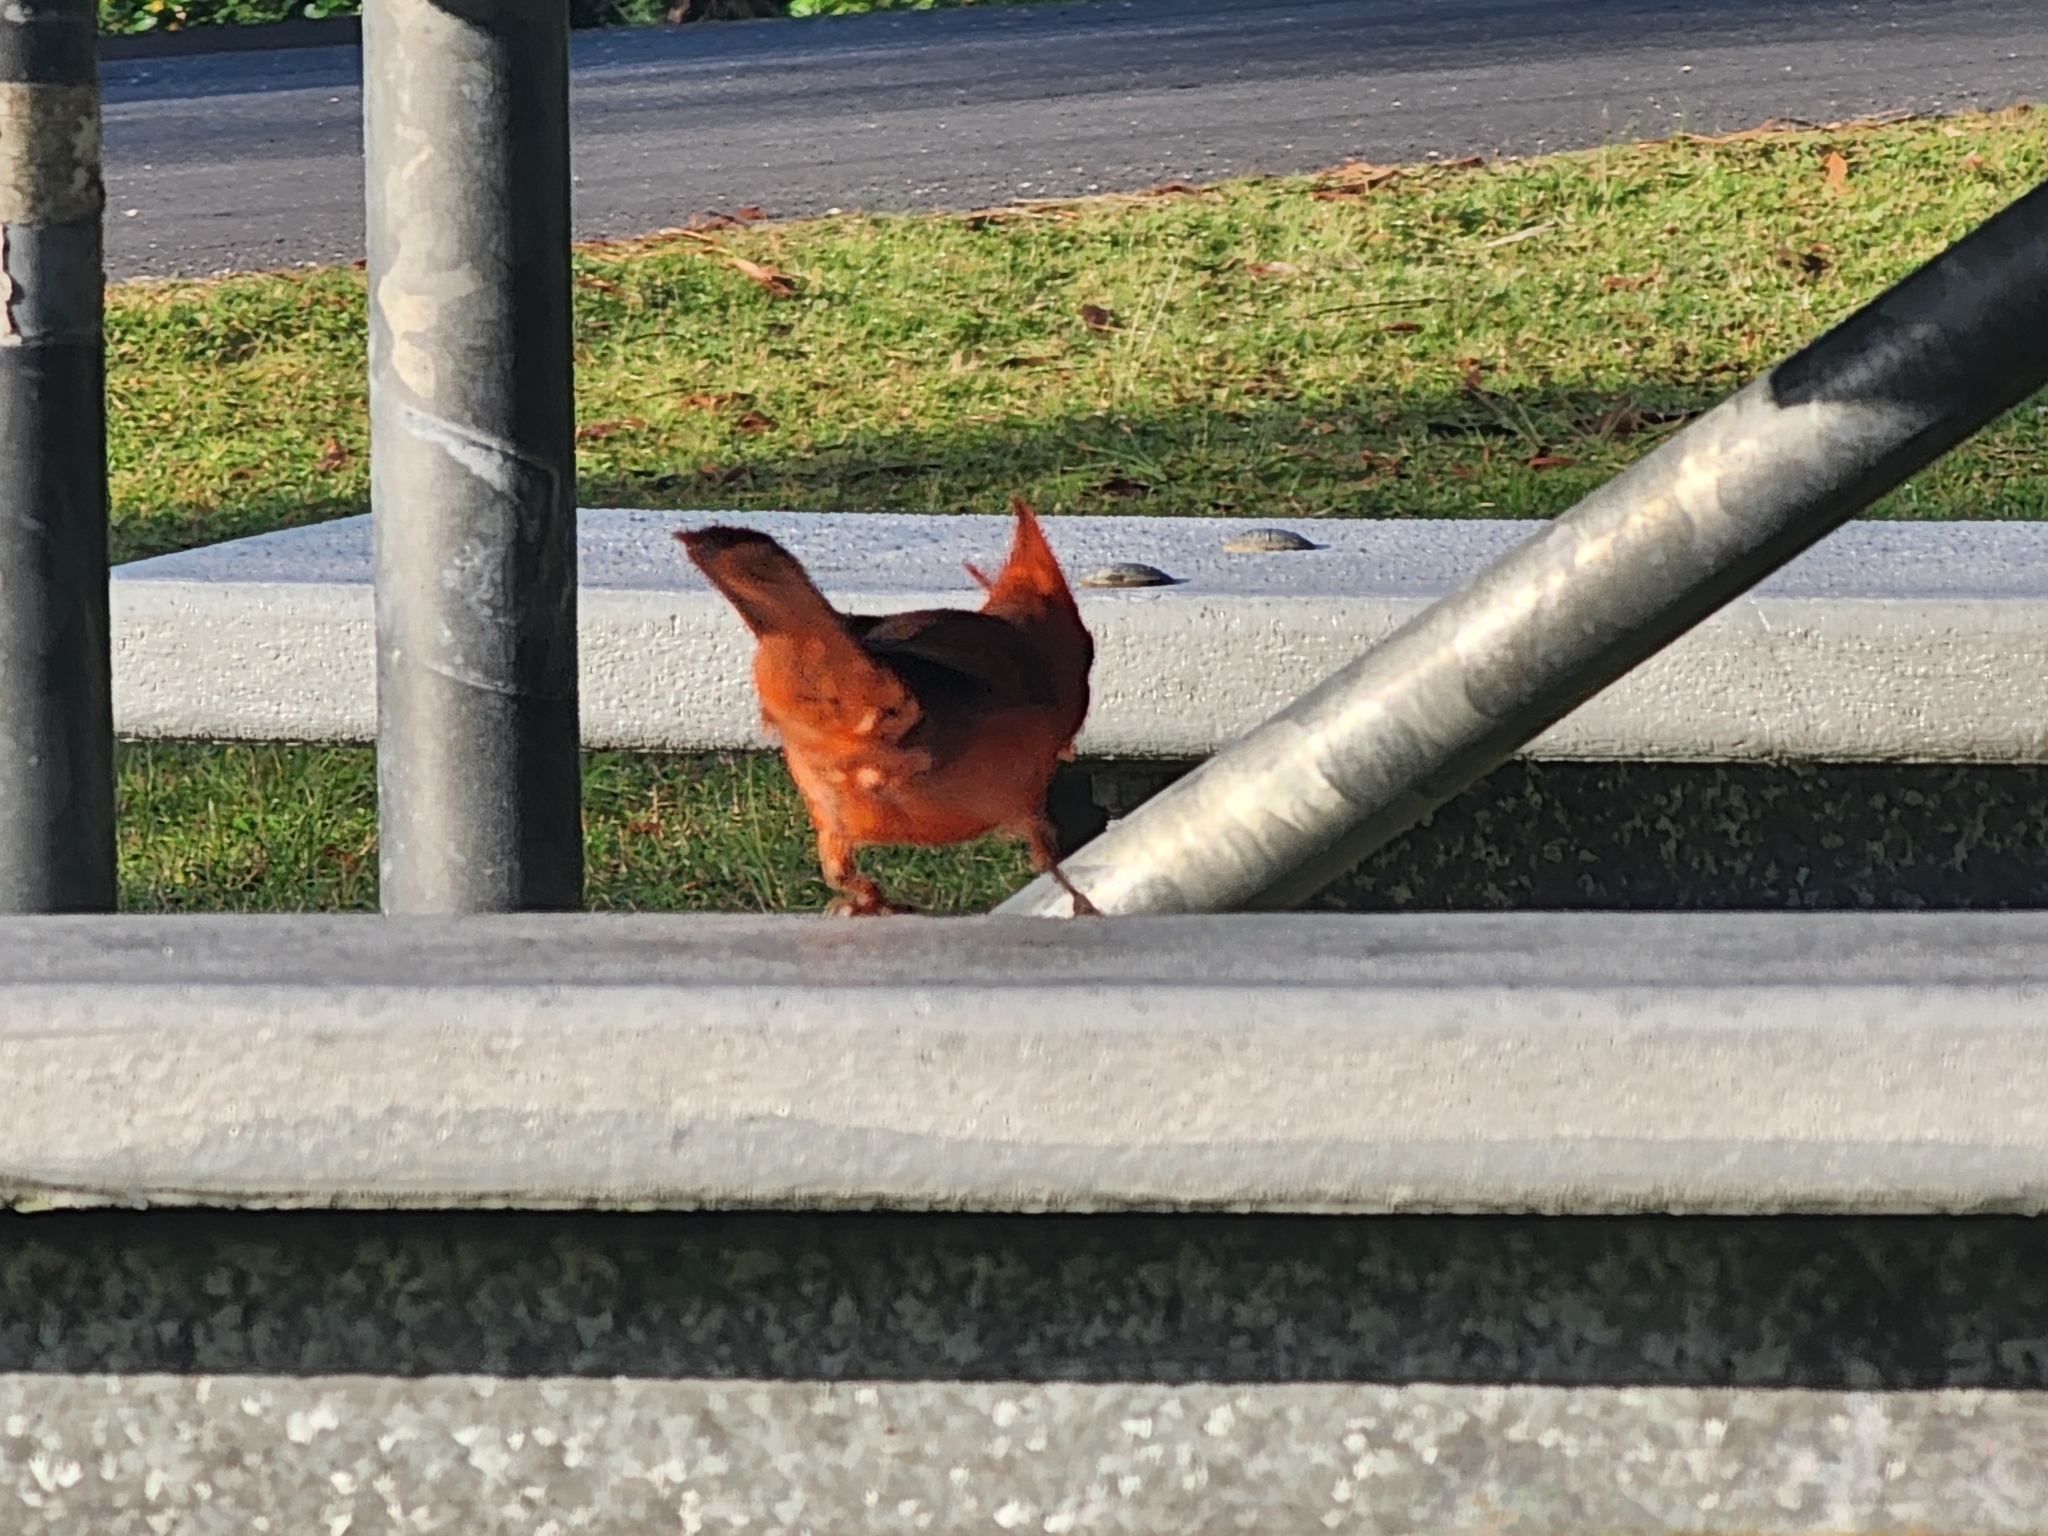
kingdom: Animalia
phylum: Chordata
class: Aves
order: Passeriformes
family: Cardinalidae
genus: Cardinalis
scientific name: Cardinalis cardinalis
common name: Northern cardinal
